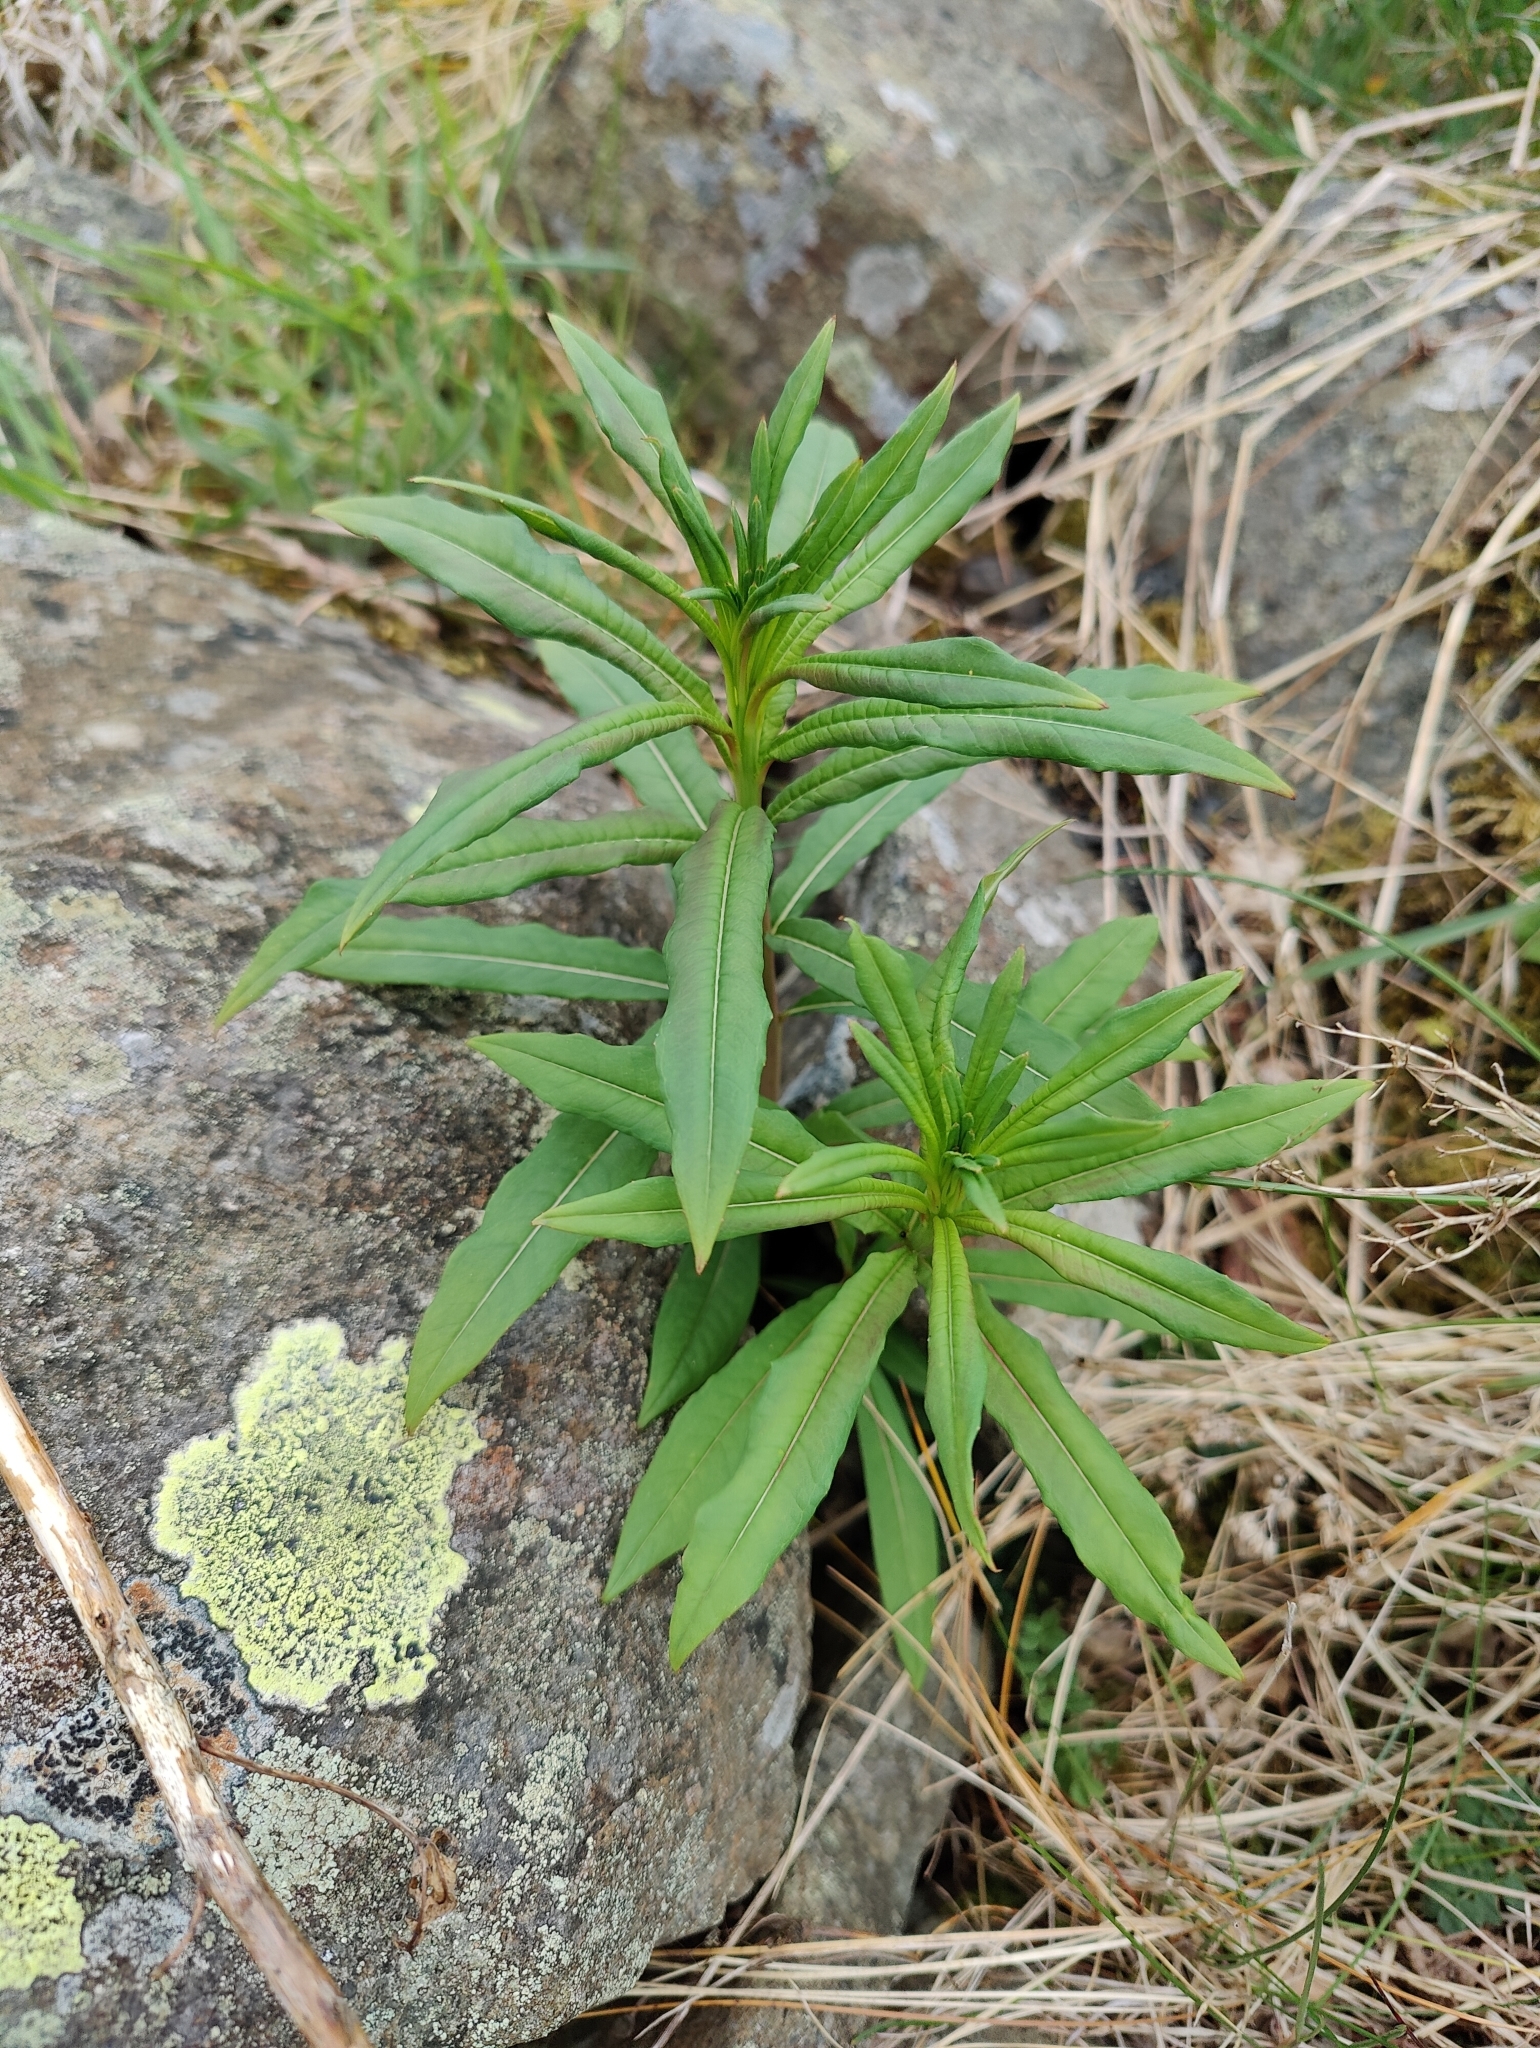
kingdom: Plantae
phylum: Tracheophyta
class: Magnoliopsida
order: Myrtales
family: Onagraceae
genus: Chamaenerion
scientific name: Chamaenerion angustifolium
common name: Fireweed
